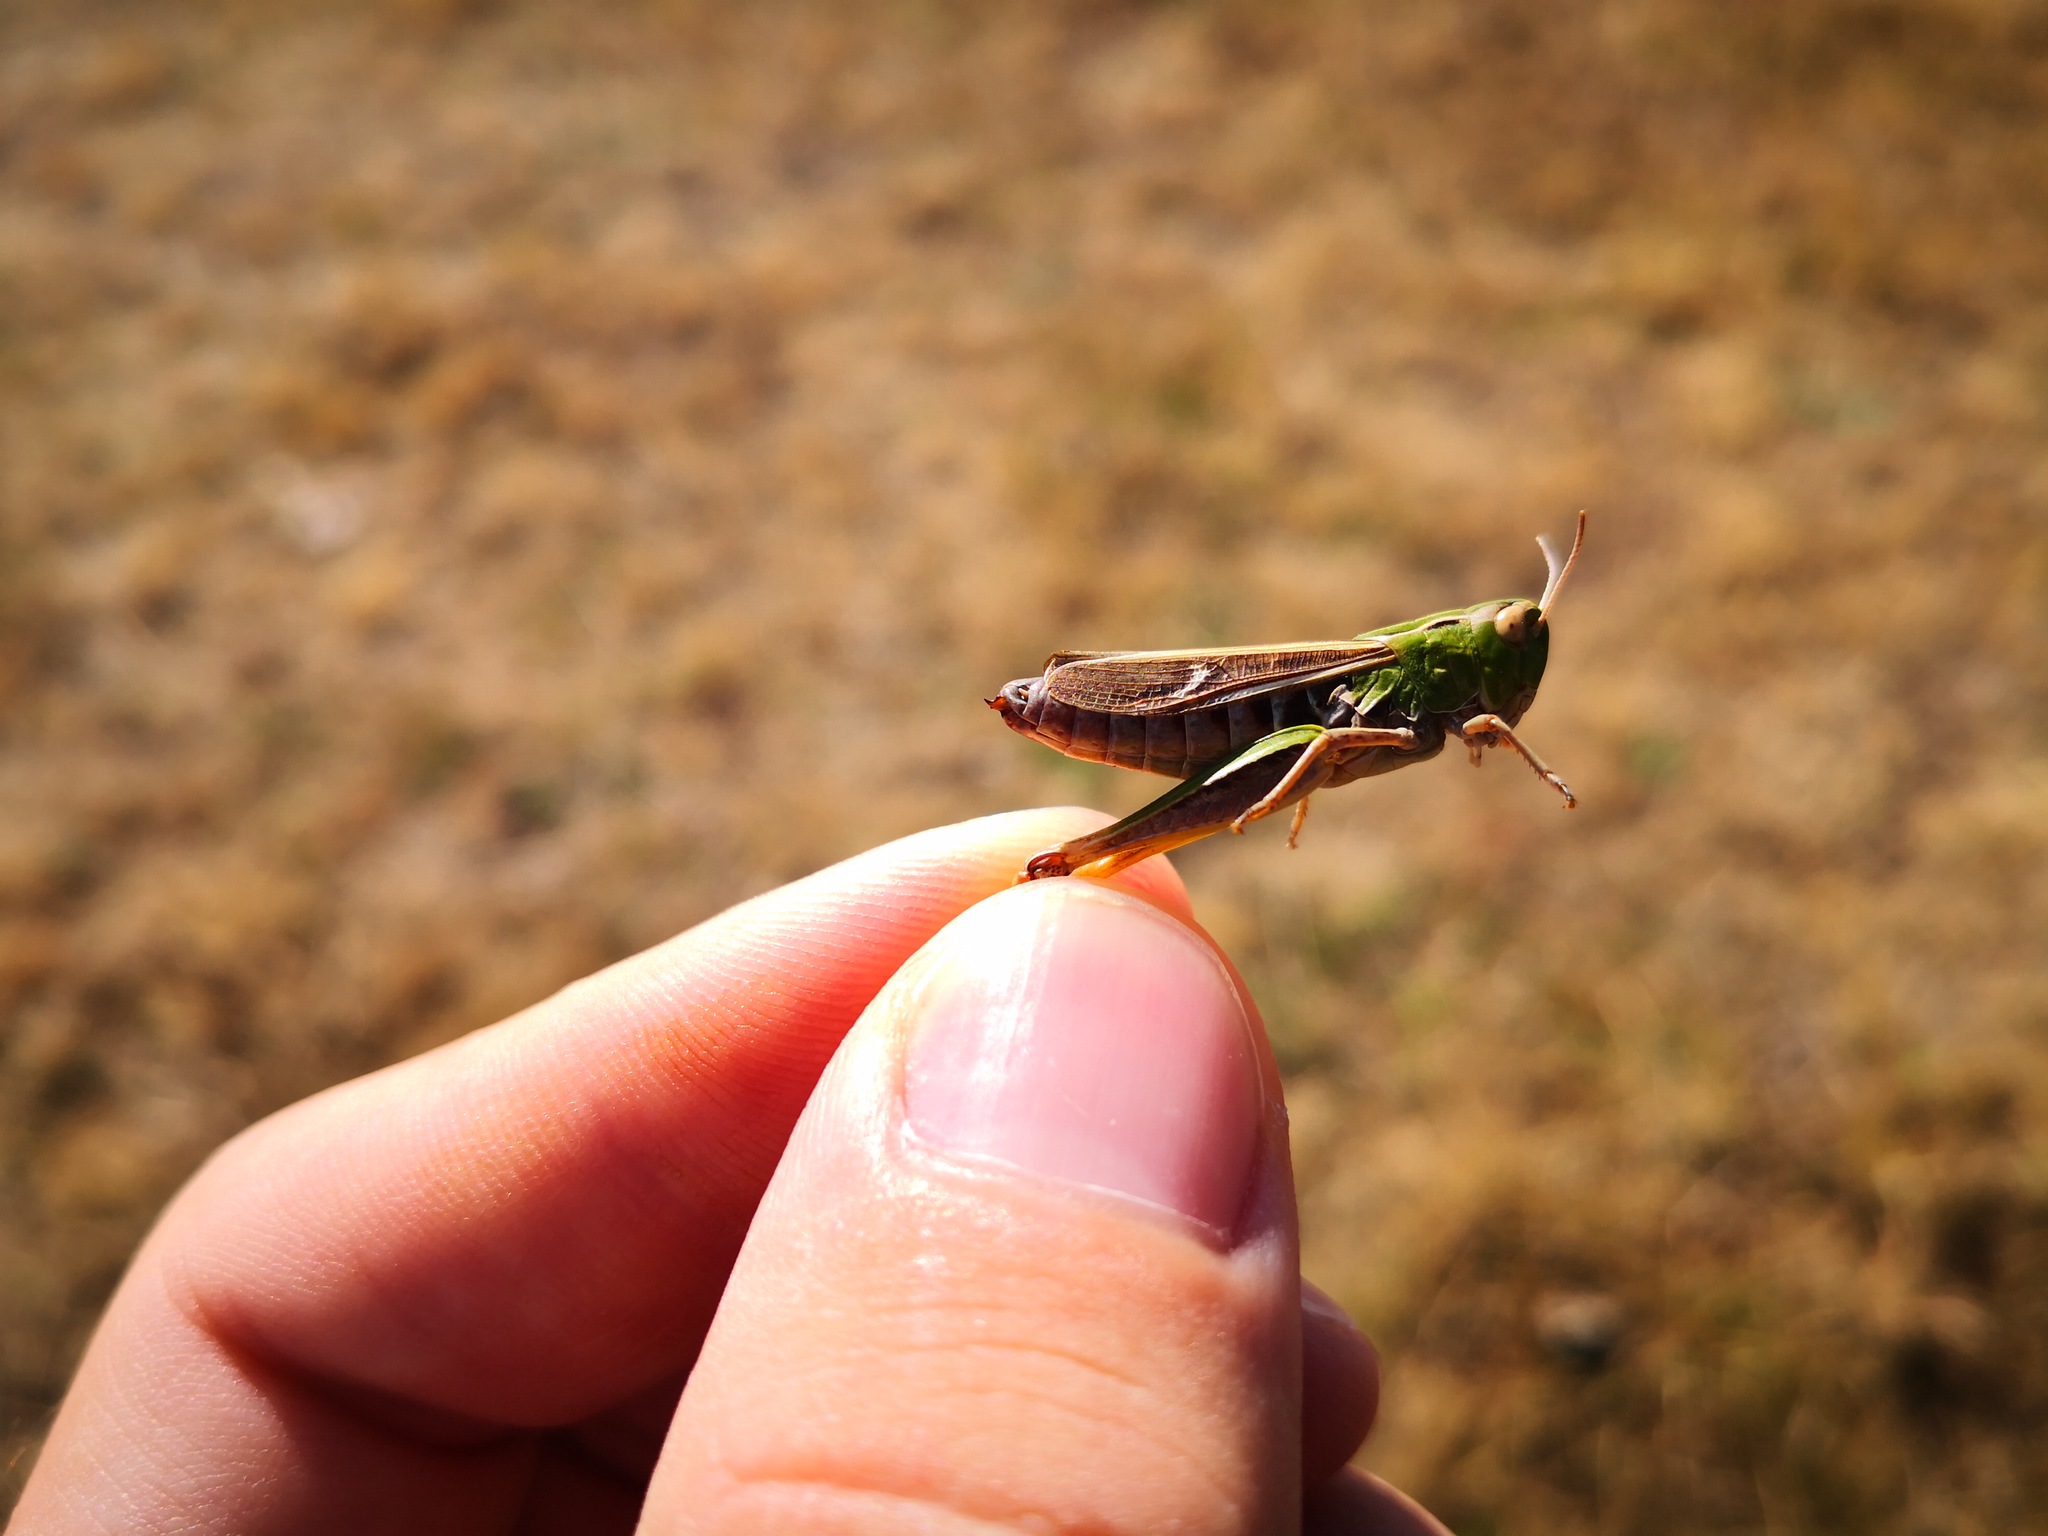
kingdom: Animalia
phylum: Arthropoda
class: Insecta
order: Orthoptera
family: Acrididae
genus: Stenobothrus
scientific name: Stenobothrus lineatus
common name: Stripe-winged grasshopper
